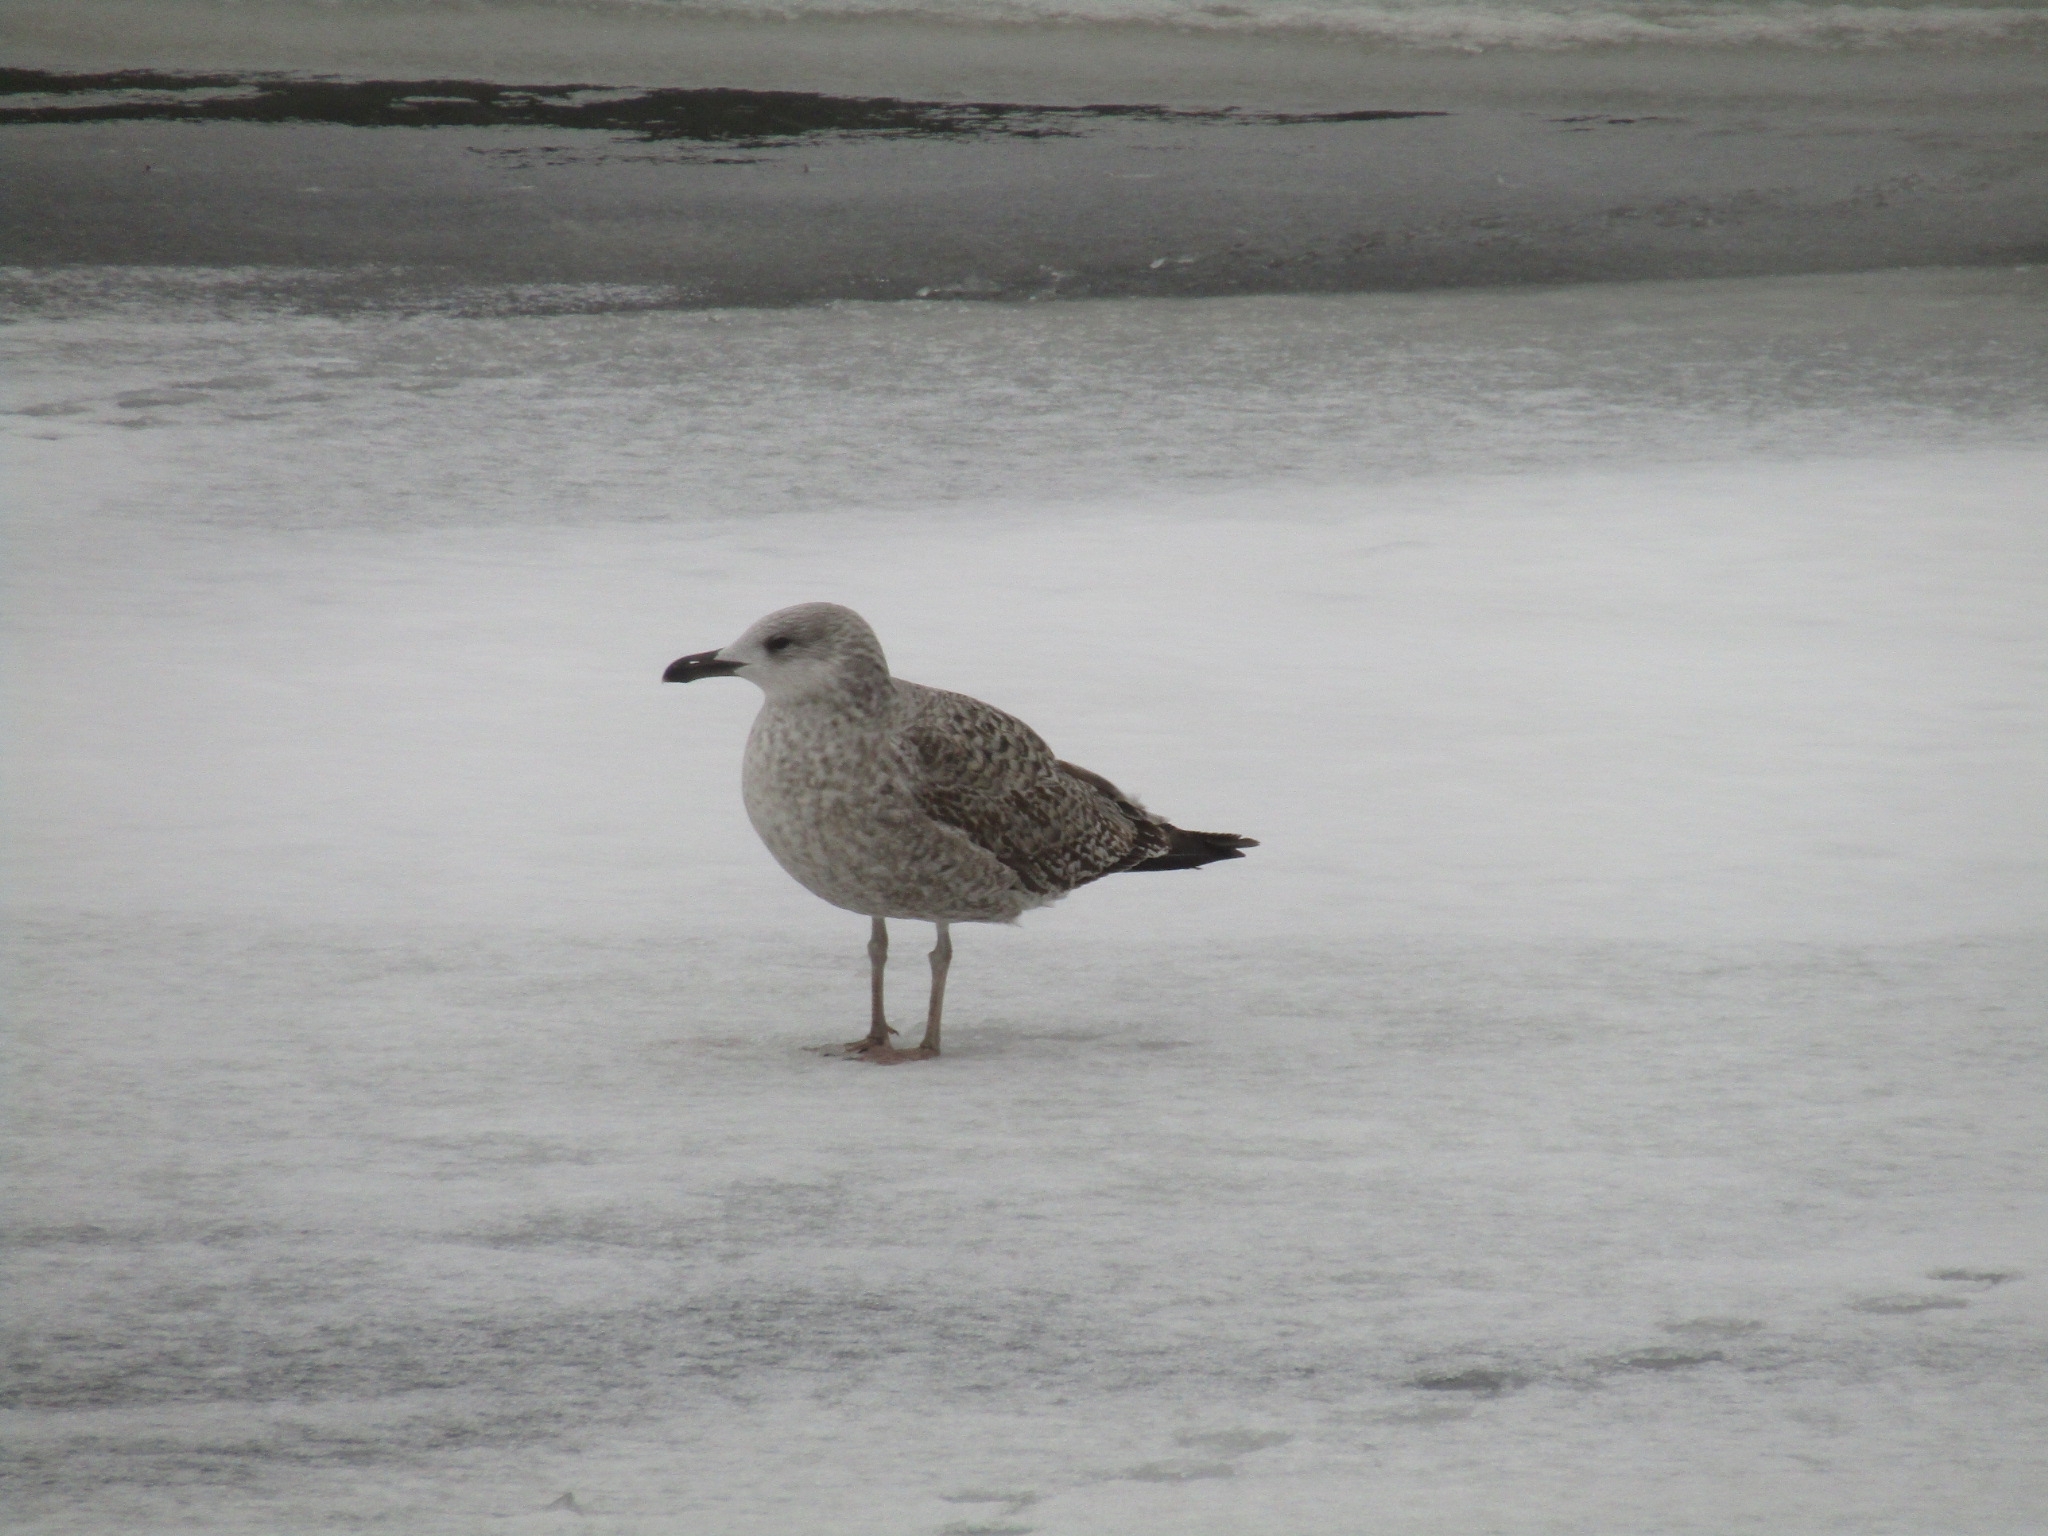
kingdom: Animalia
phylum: Chordata
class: Aves
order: Charadriiformes
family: Laridae
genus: Larus
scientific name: Larus argentatus
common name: Herring gull
